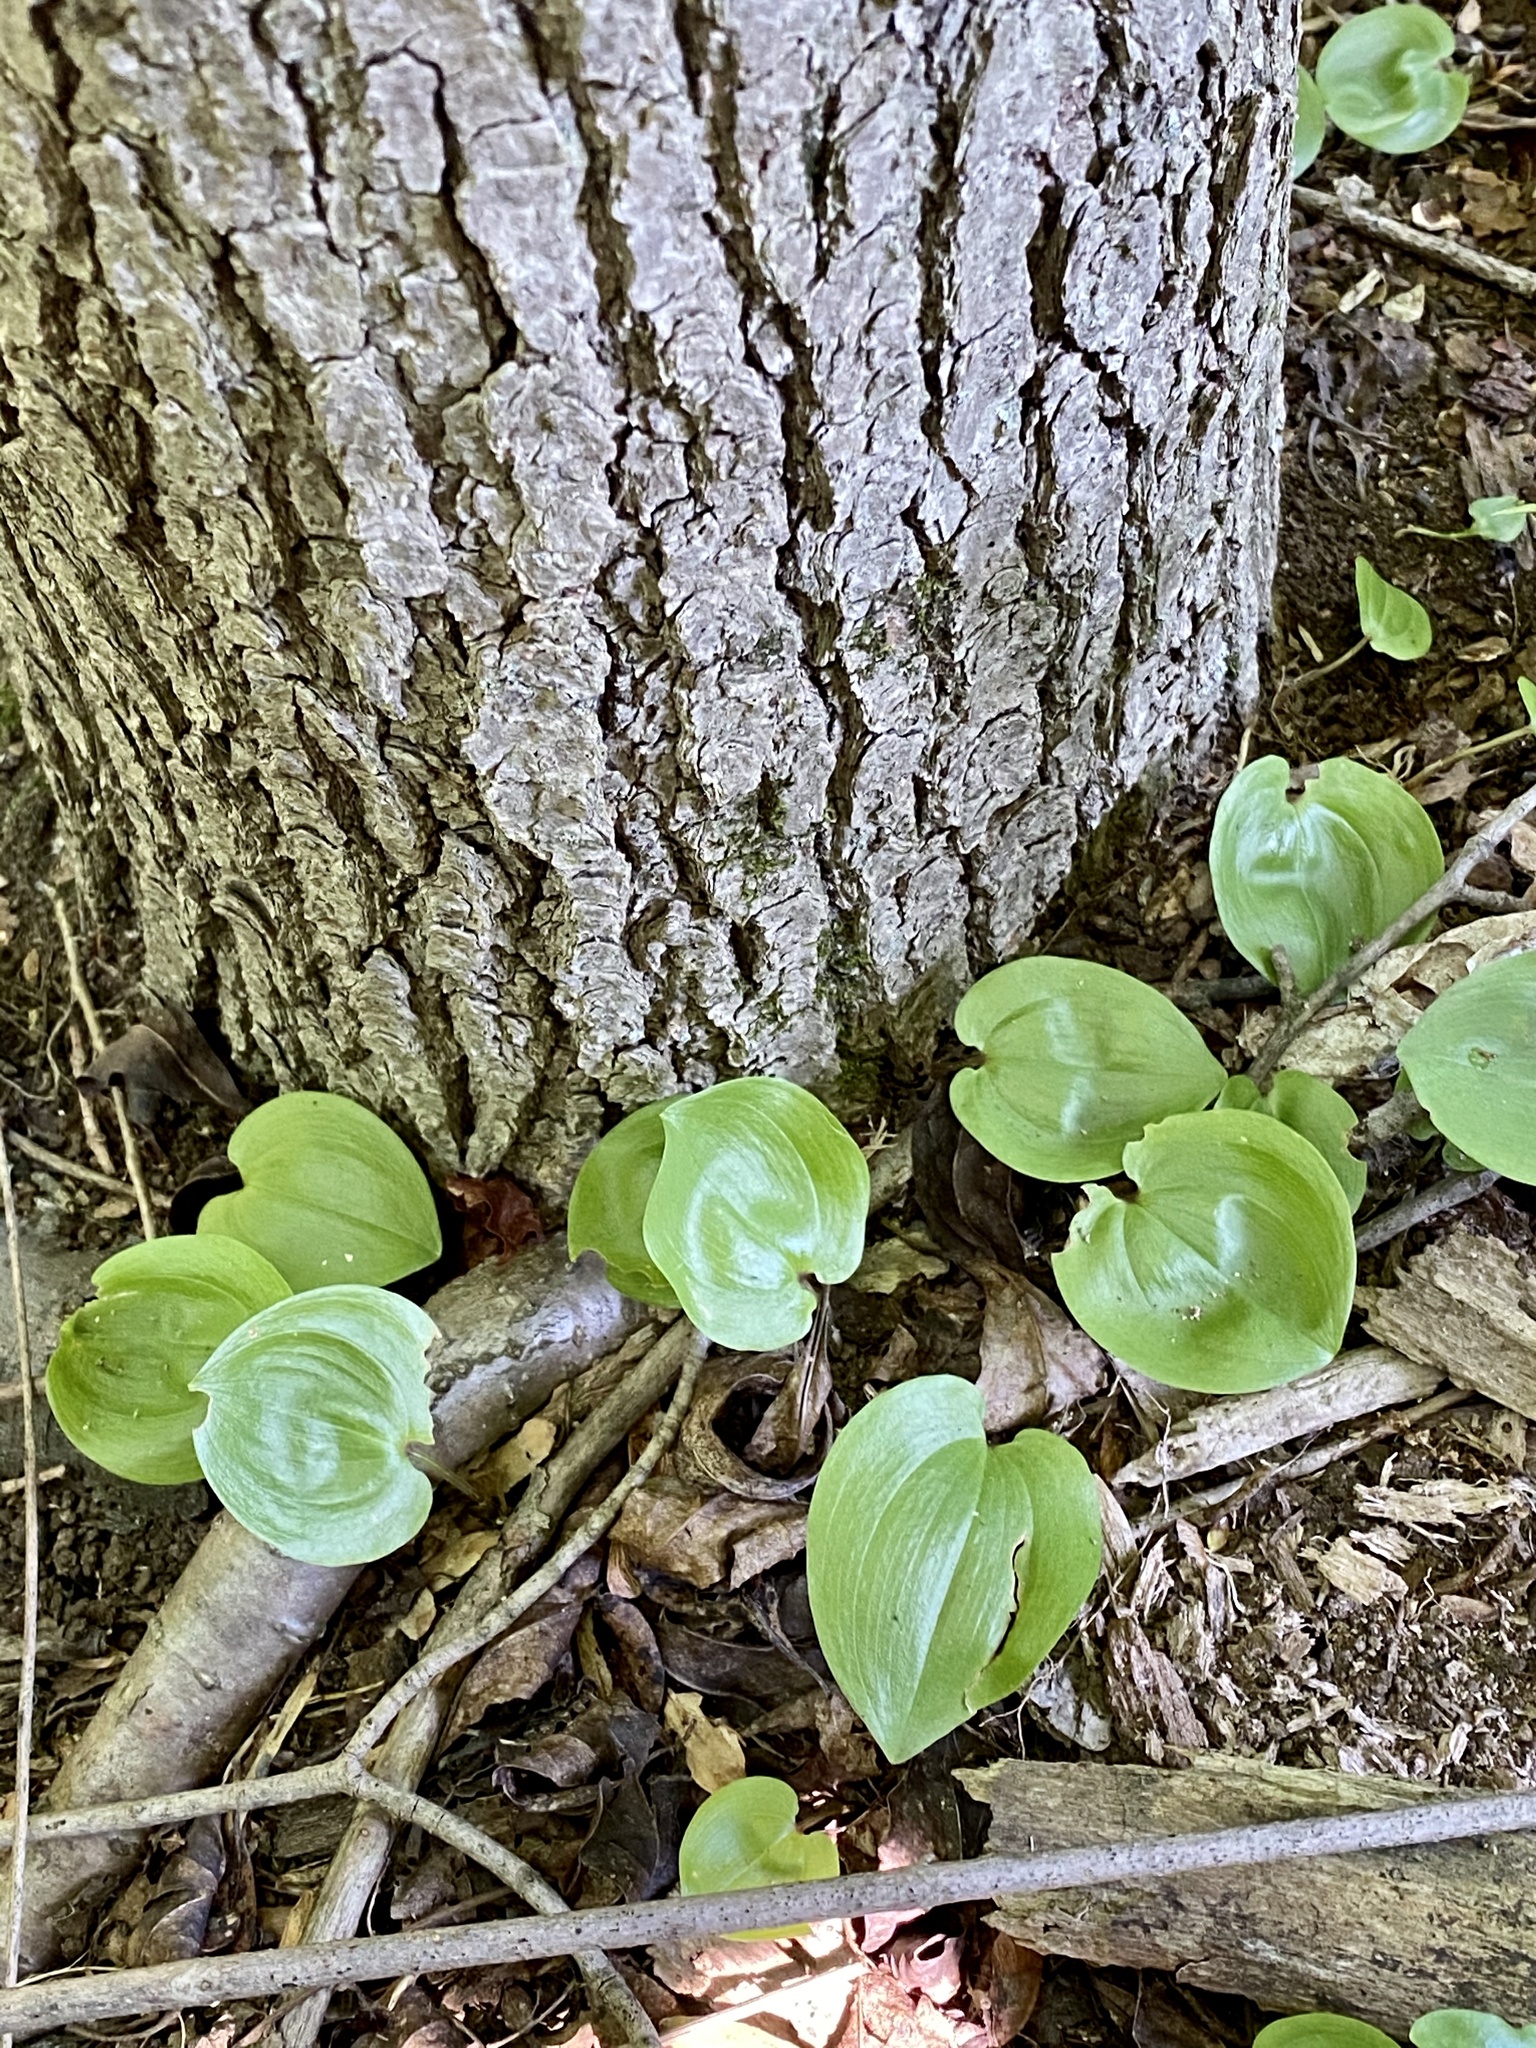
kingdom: Plantae
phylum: Tracheophyta
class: Liliopsida
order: Asparagales
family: Asparagaceae
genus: Maianthemum
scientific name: Maianthemum canadense
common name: False lily-of-the-valley
